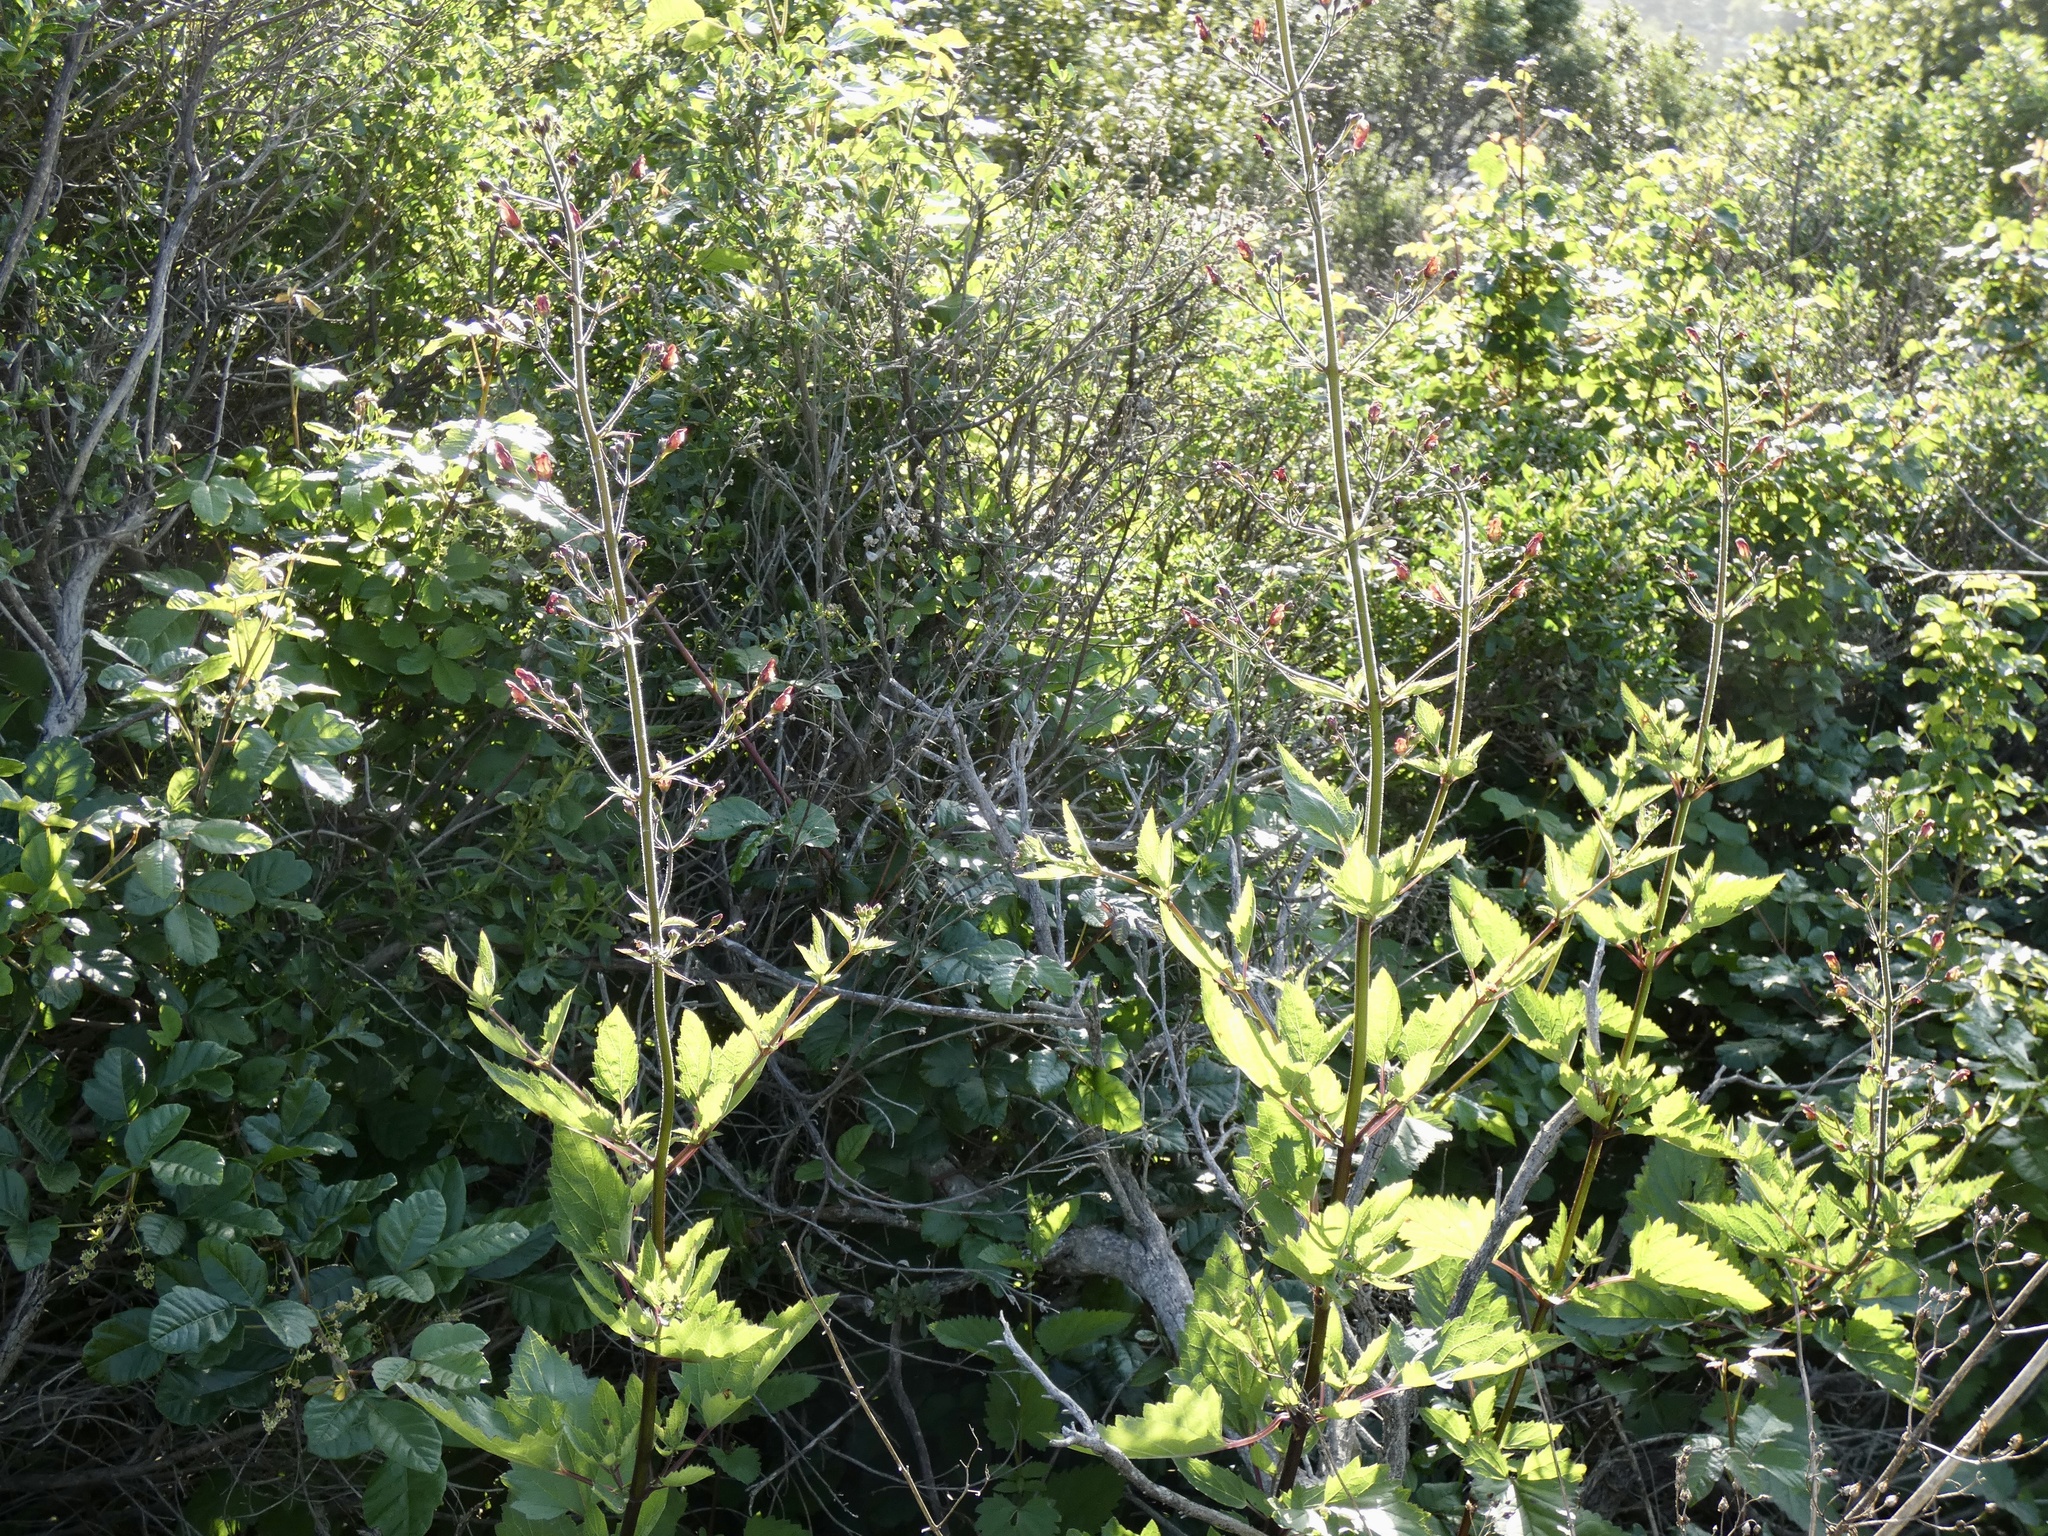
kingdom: Plantae
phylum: Tracheophyta
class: Magnoliopsida
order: Lamiales
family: Scrophulariaceae
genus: Scrophularia
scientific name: Scrophularia californica
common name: California figwort
